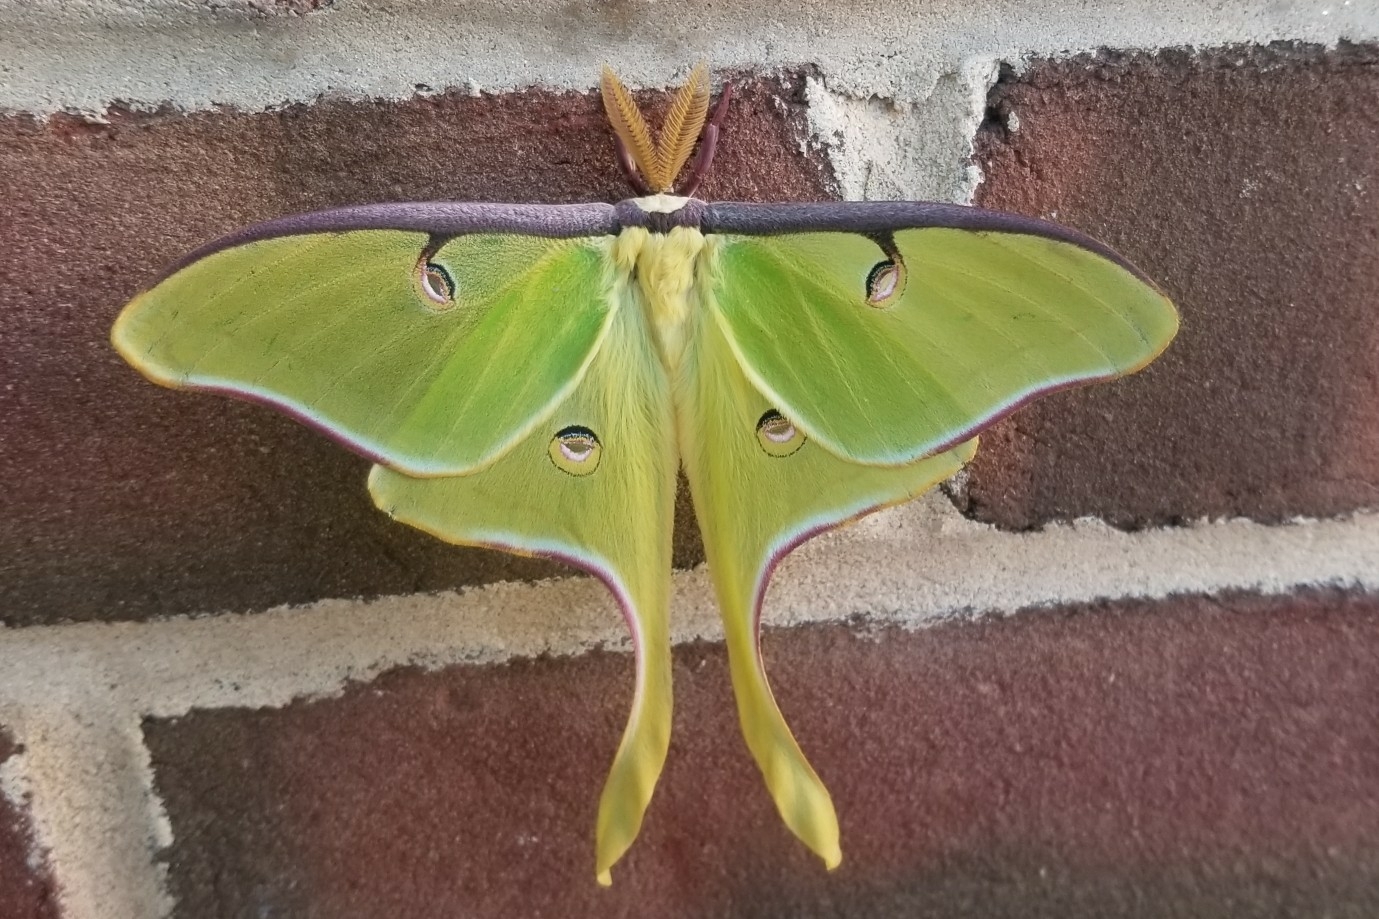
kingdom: Animalia
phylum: Arthropoda
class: Insecta
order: Lepidoptera
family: Saturniidae
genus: Actias
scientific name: Actias luna
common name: Luna moth
